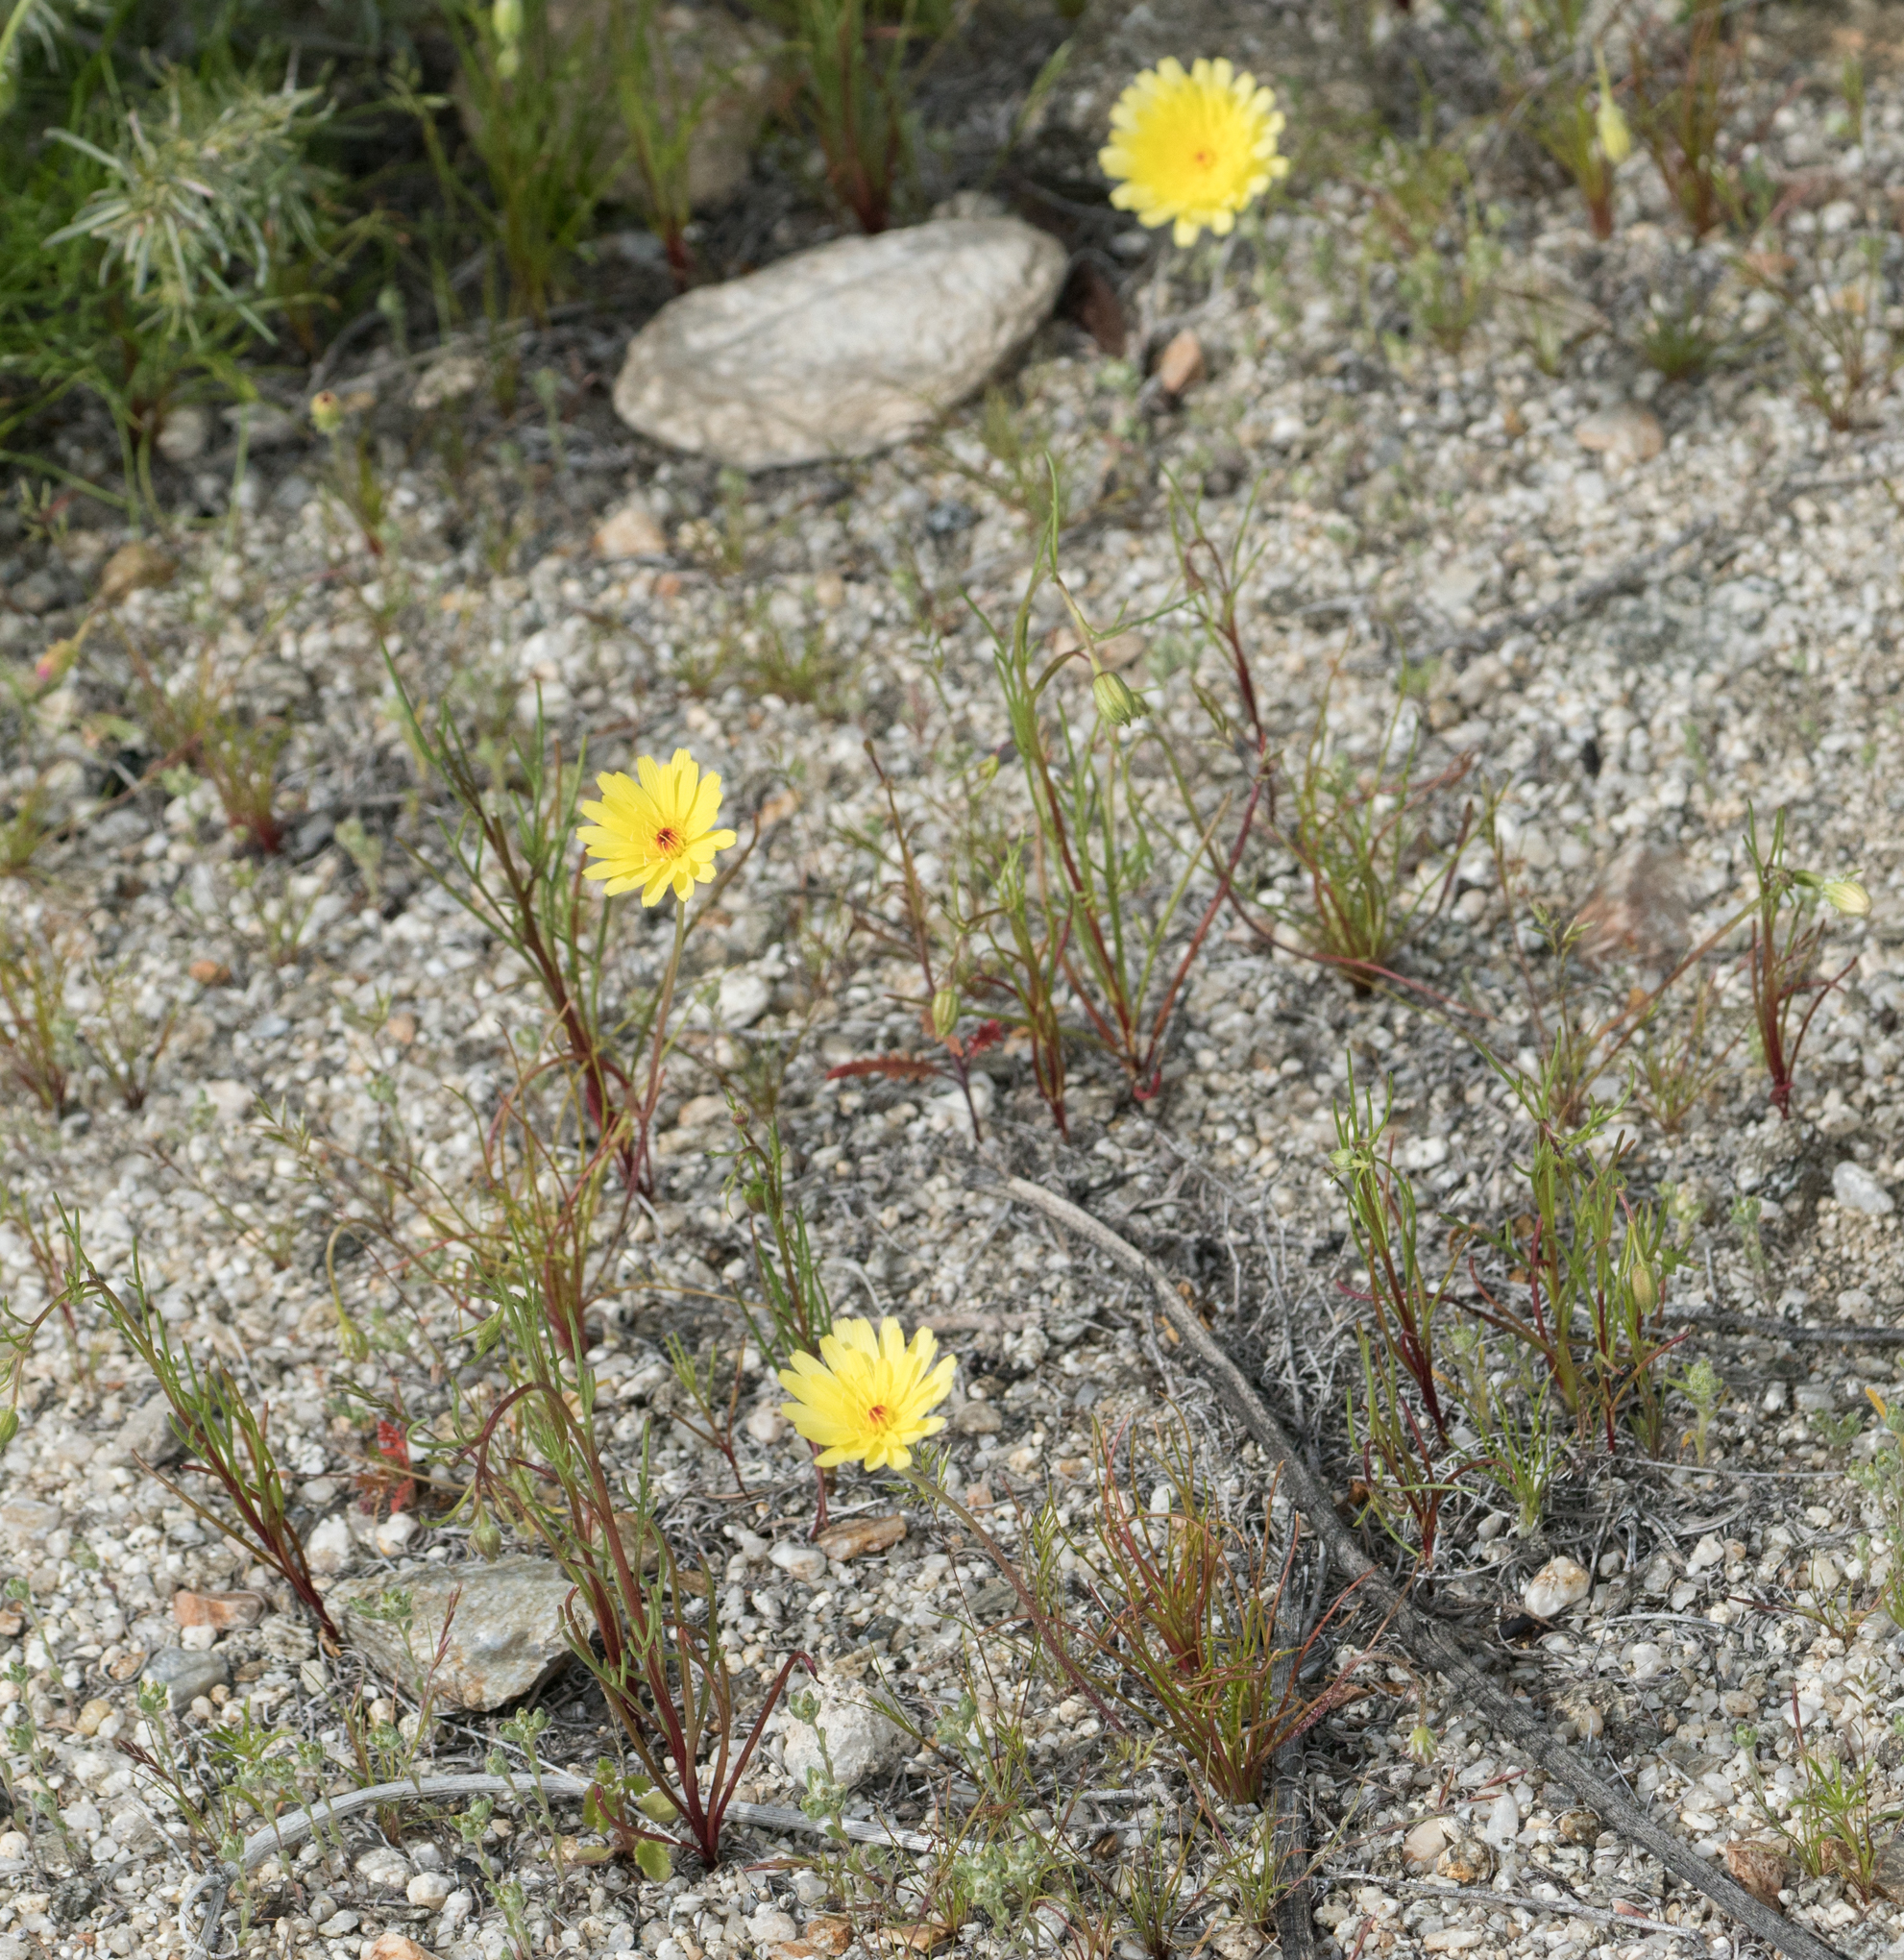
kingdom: Plantae
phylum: Tracheophyta
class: Magnoliopsida
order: Asterales
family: Asteraceae
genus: Malacothrix
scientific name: Malacothrix glabrata
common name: Smooth desert-dandelion
